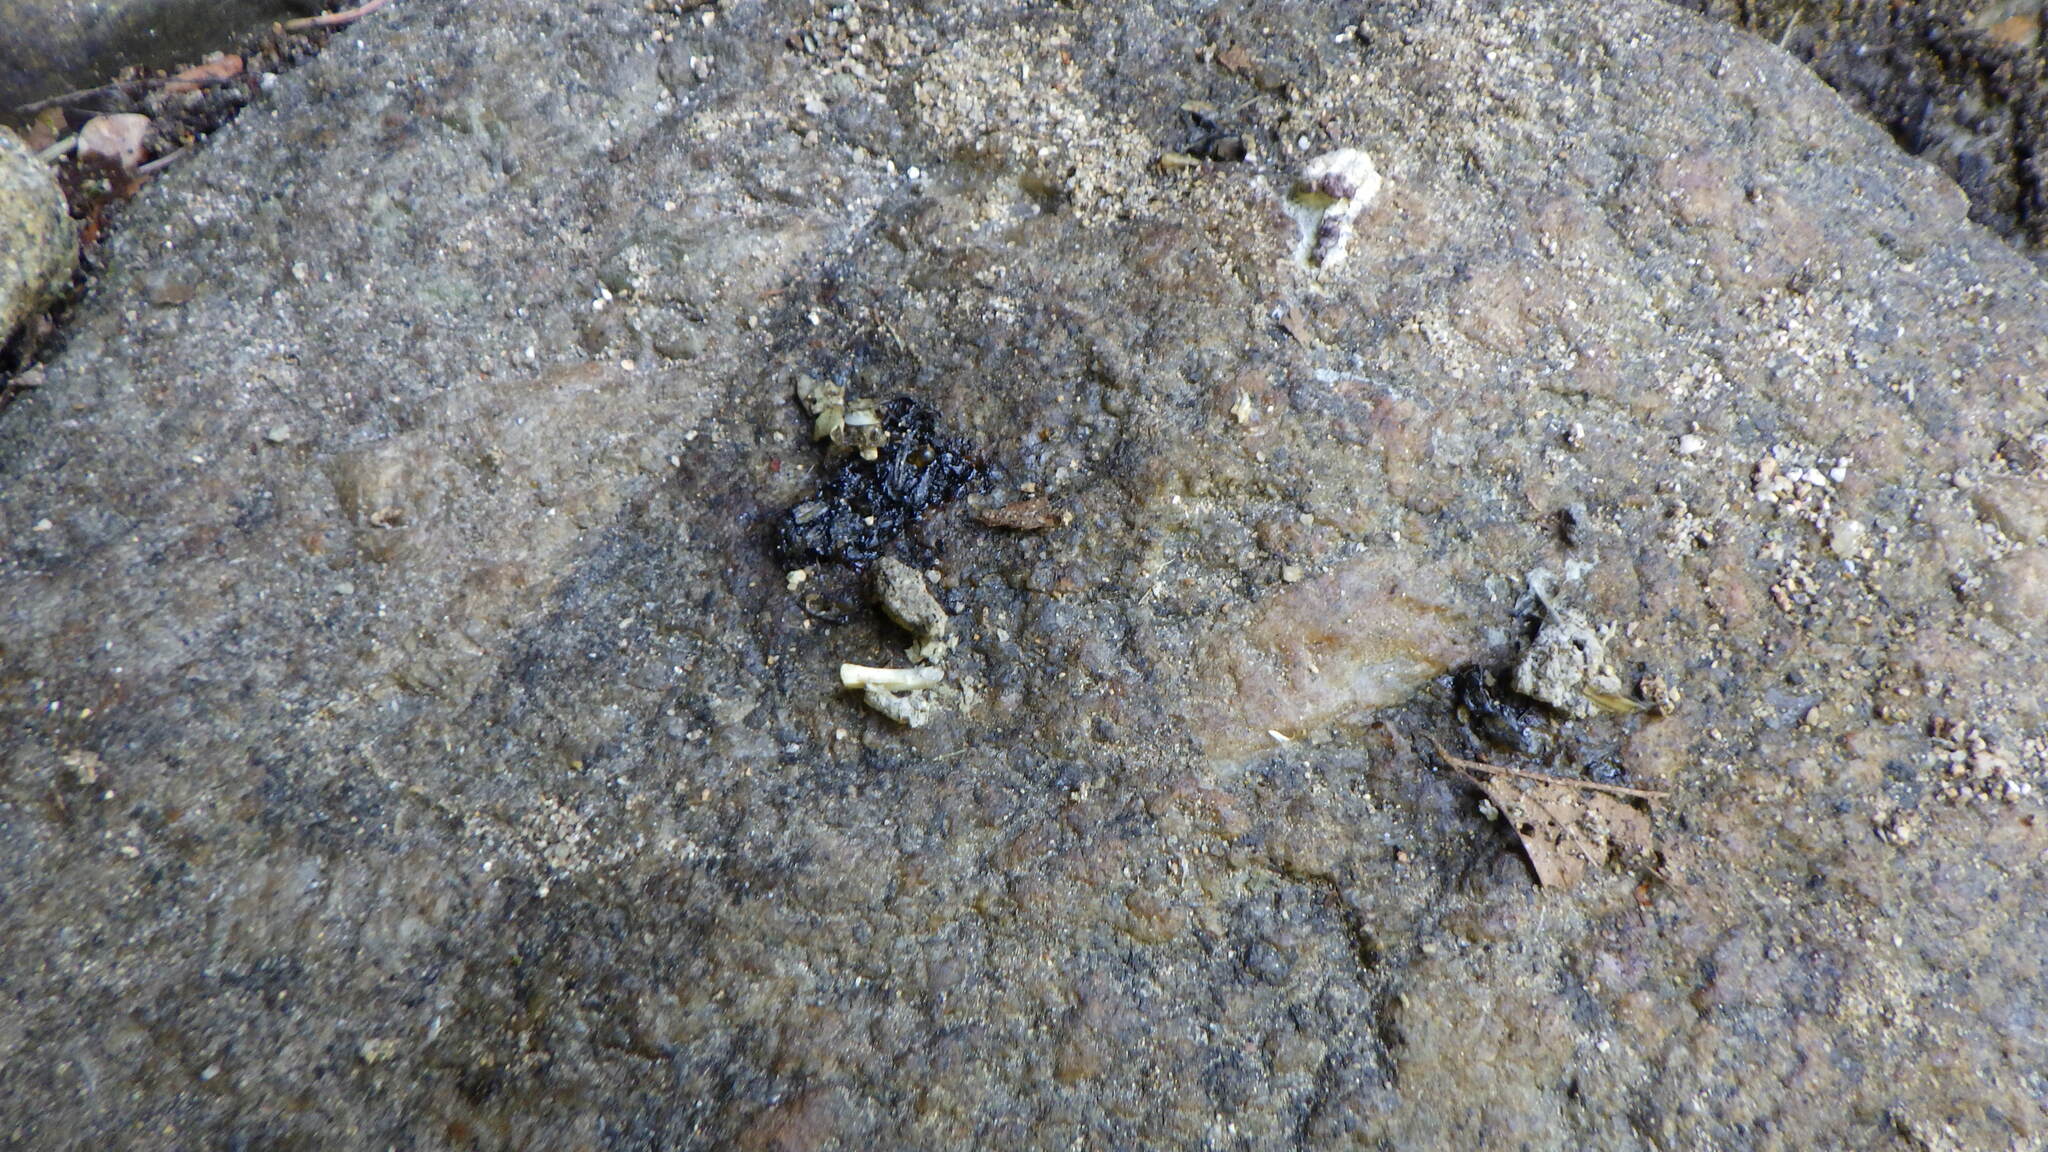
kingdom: Animalia
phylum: Chordata
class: Mammalia
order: Carnivora
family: Mustelidae
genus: Lutra
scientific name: Lutra lutra
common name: European otter
